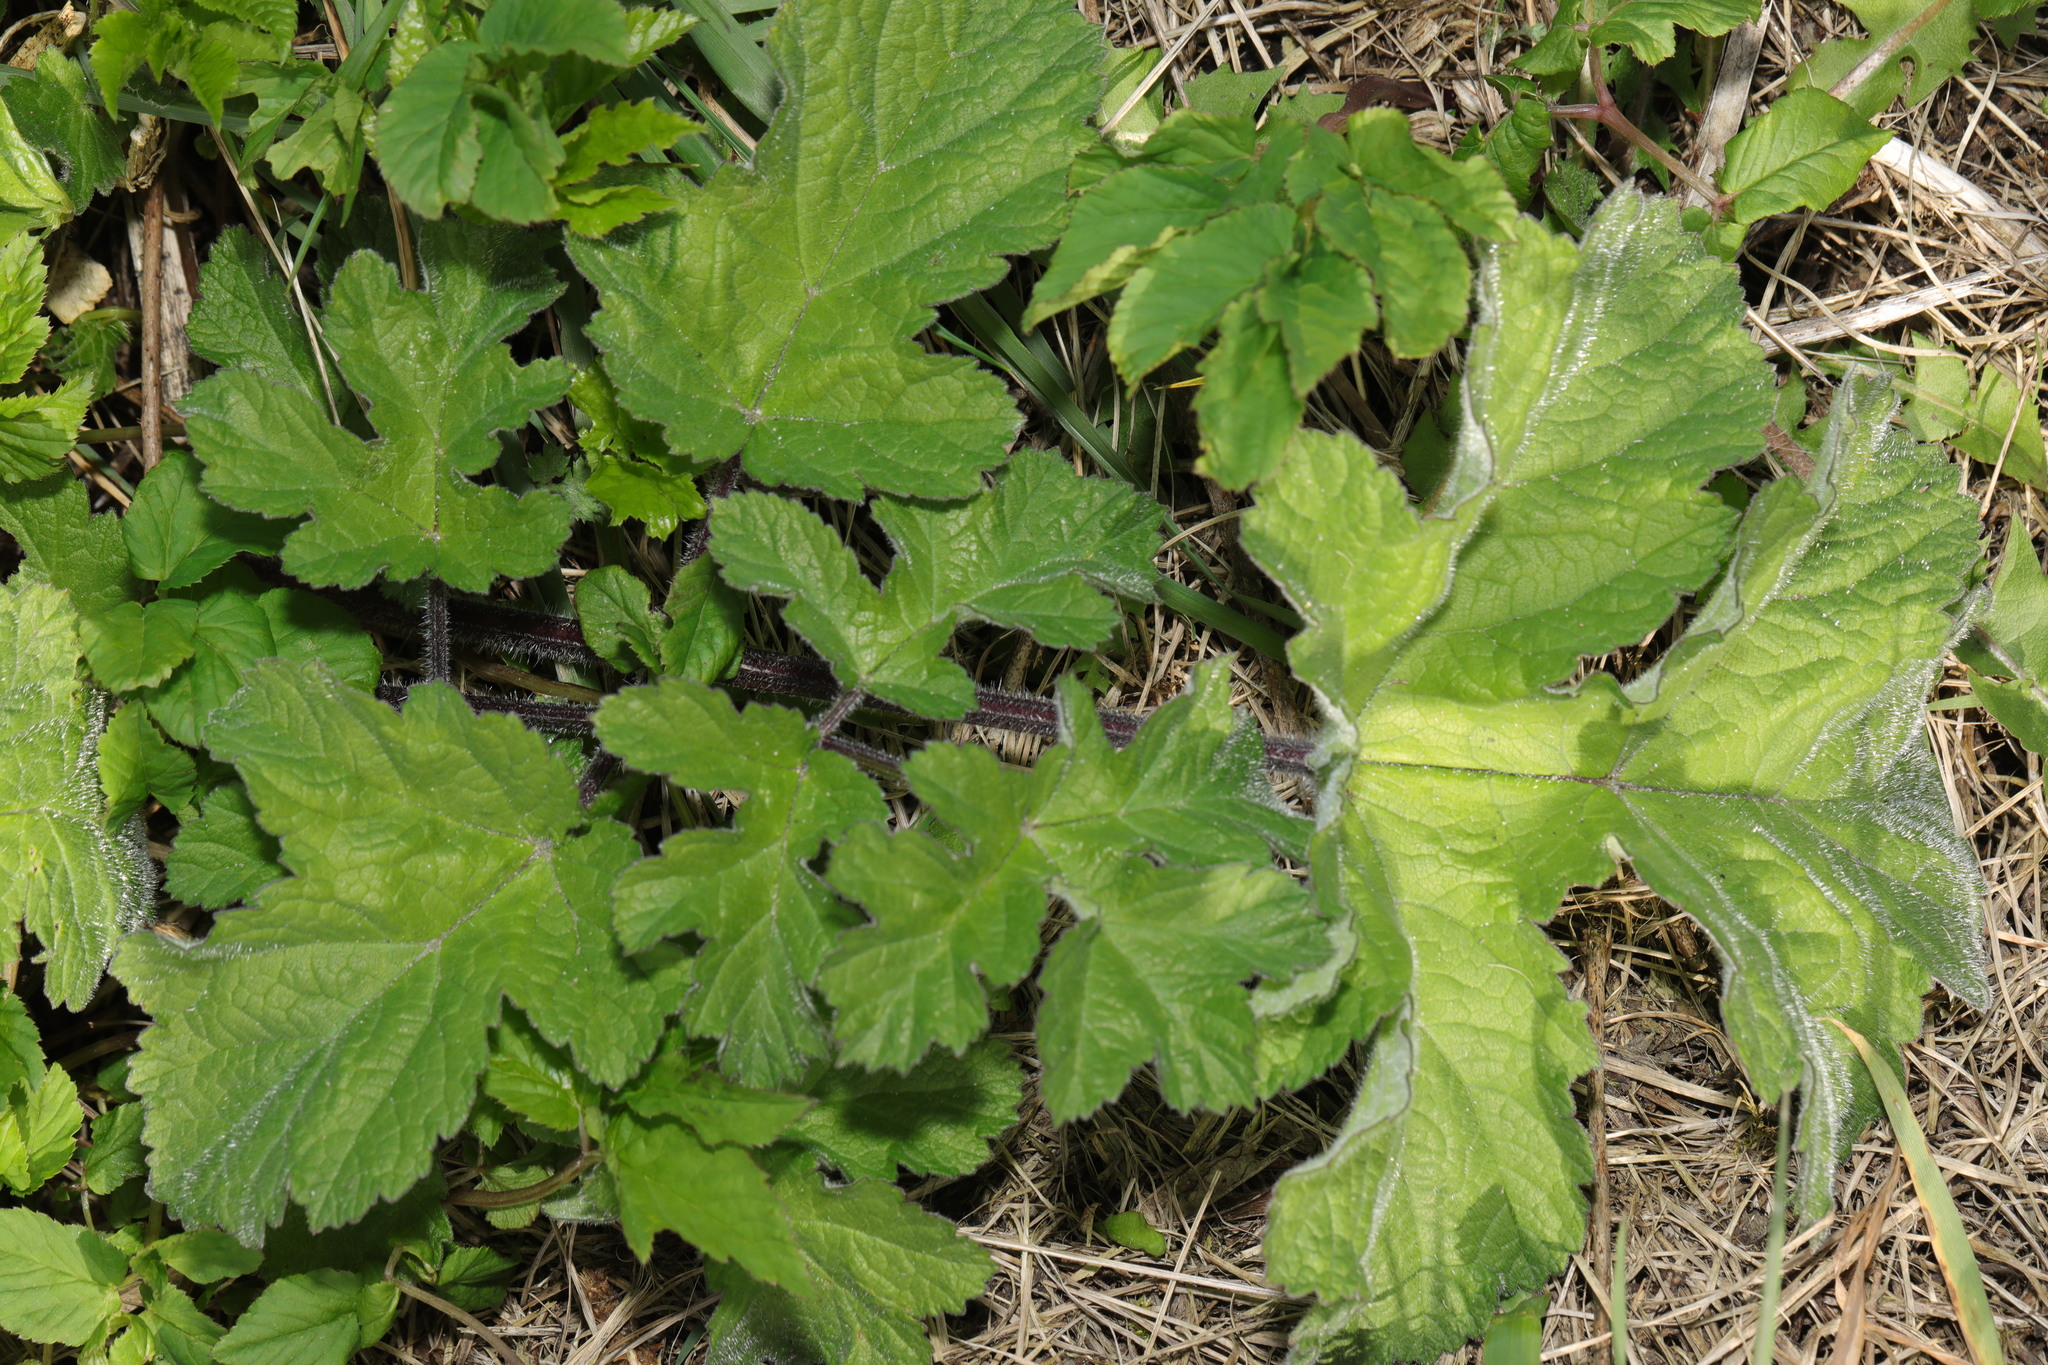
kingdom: Plantae
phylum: Tracheophyta
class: Magnoliopsida
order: Apiales
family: Apiaceae
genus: Heracleum
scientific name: Heracleum sphondylium
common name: Hogweed
